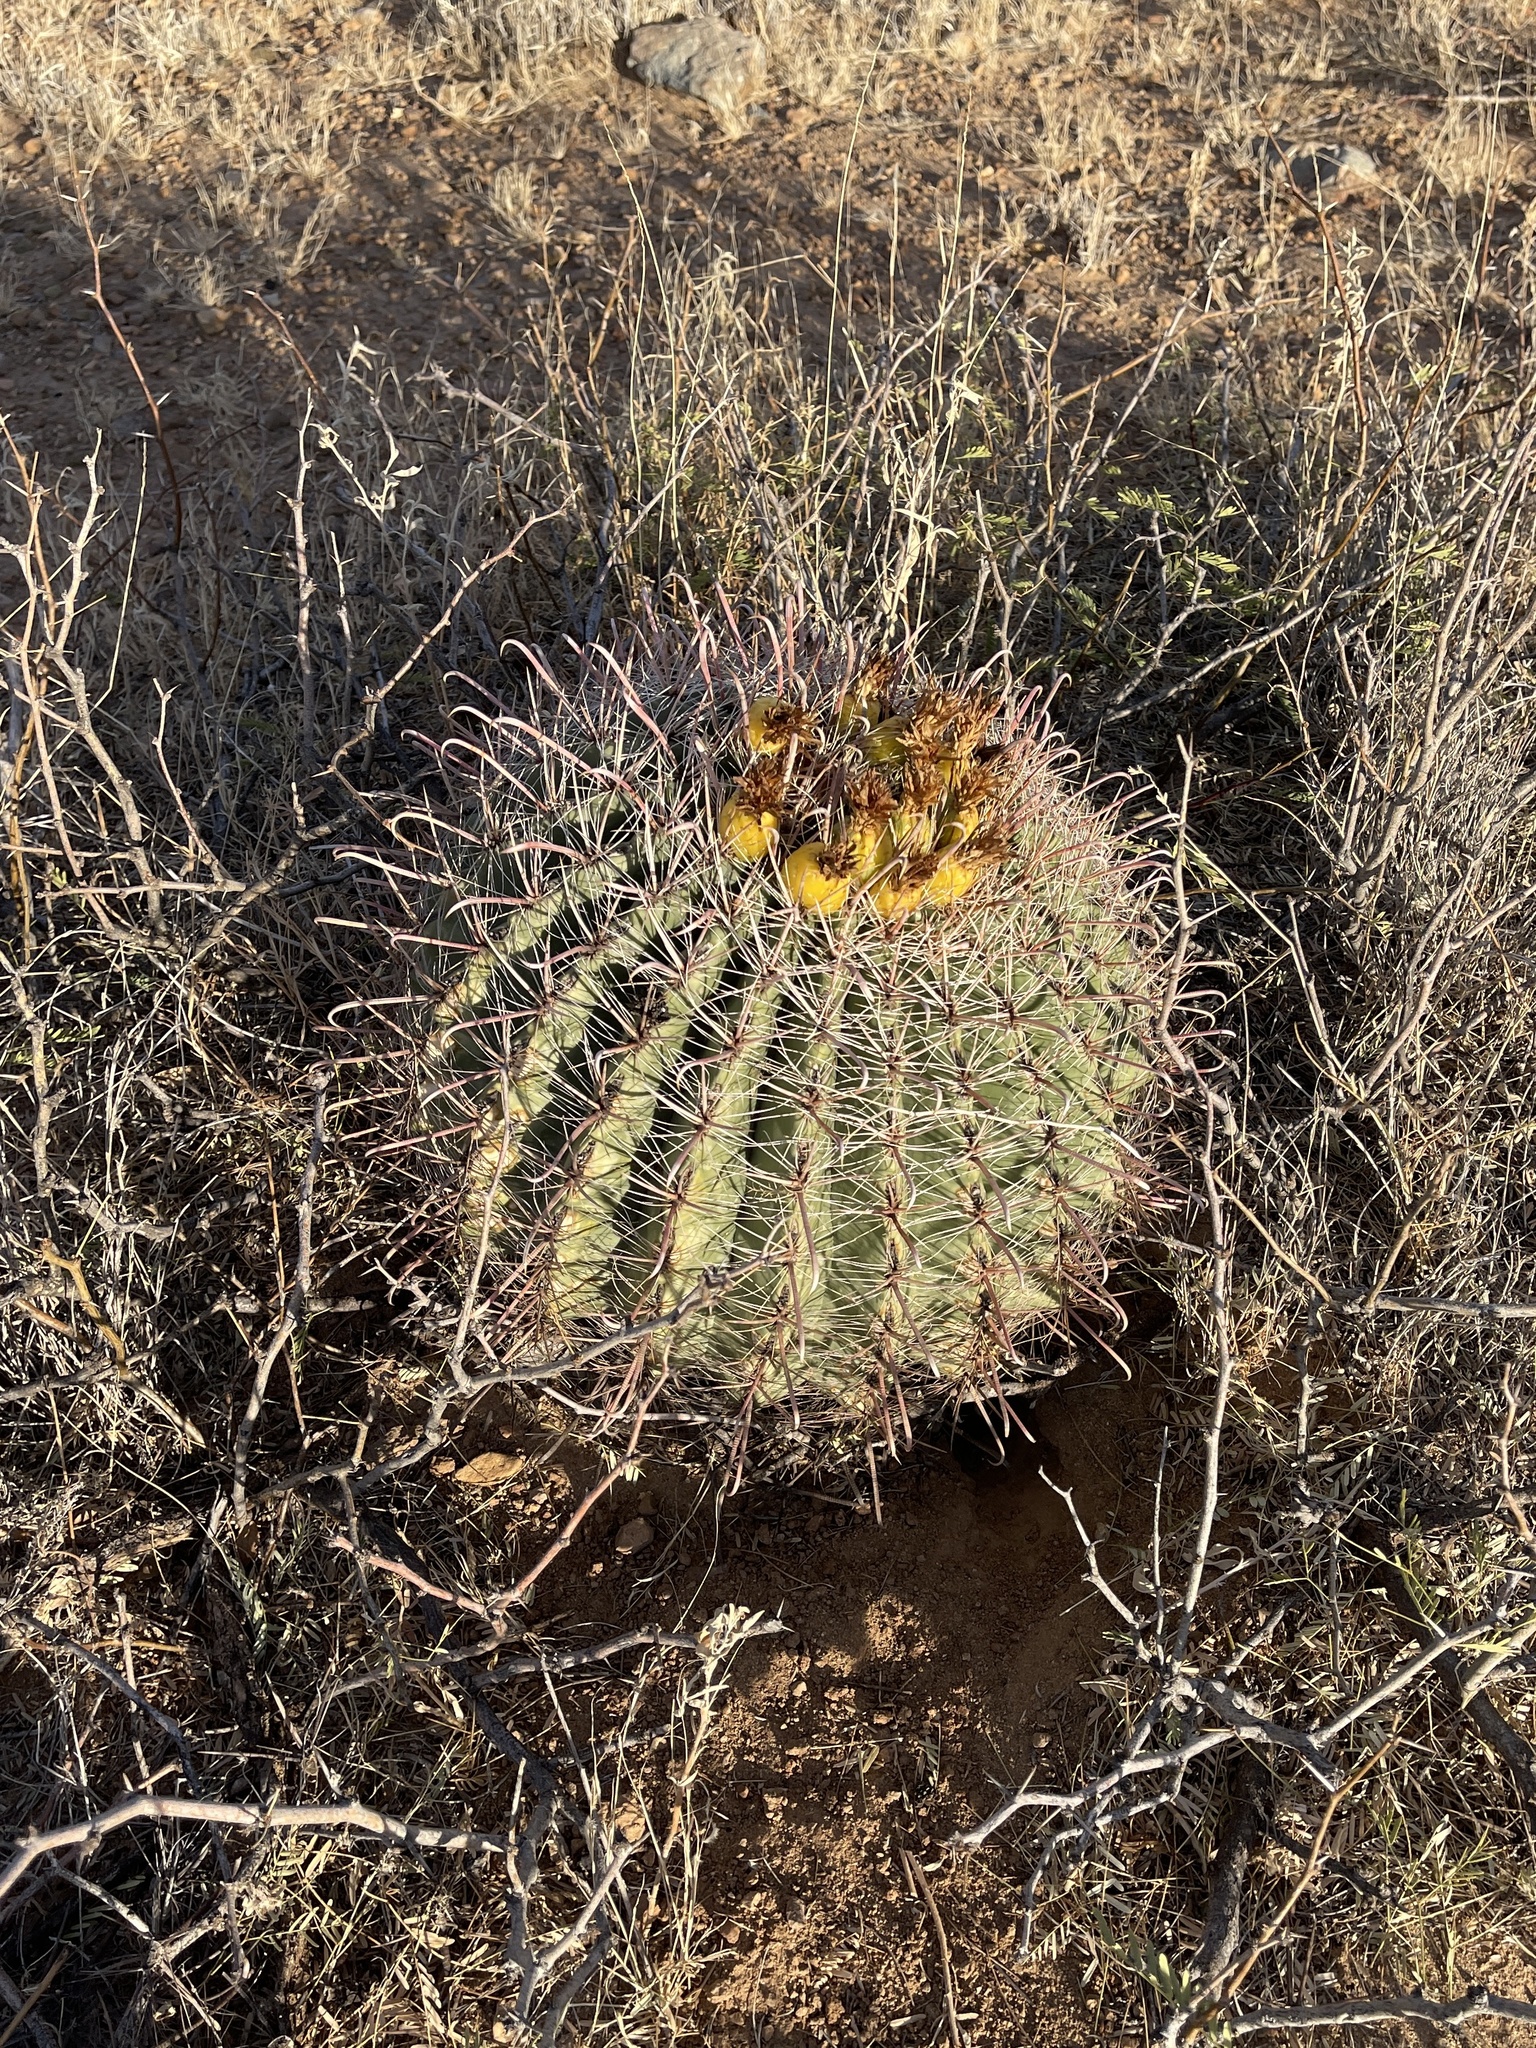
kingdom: Plantae
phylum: Tracheophyta
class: Magnoliopsida
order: Caryophyllales
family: Cactaceae
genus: Ferocactus
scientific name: Ferocactus wislizeni
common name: Candy barrel cactus
